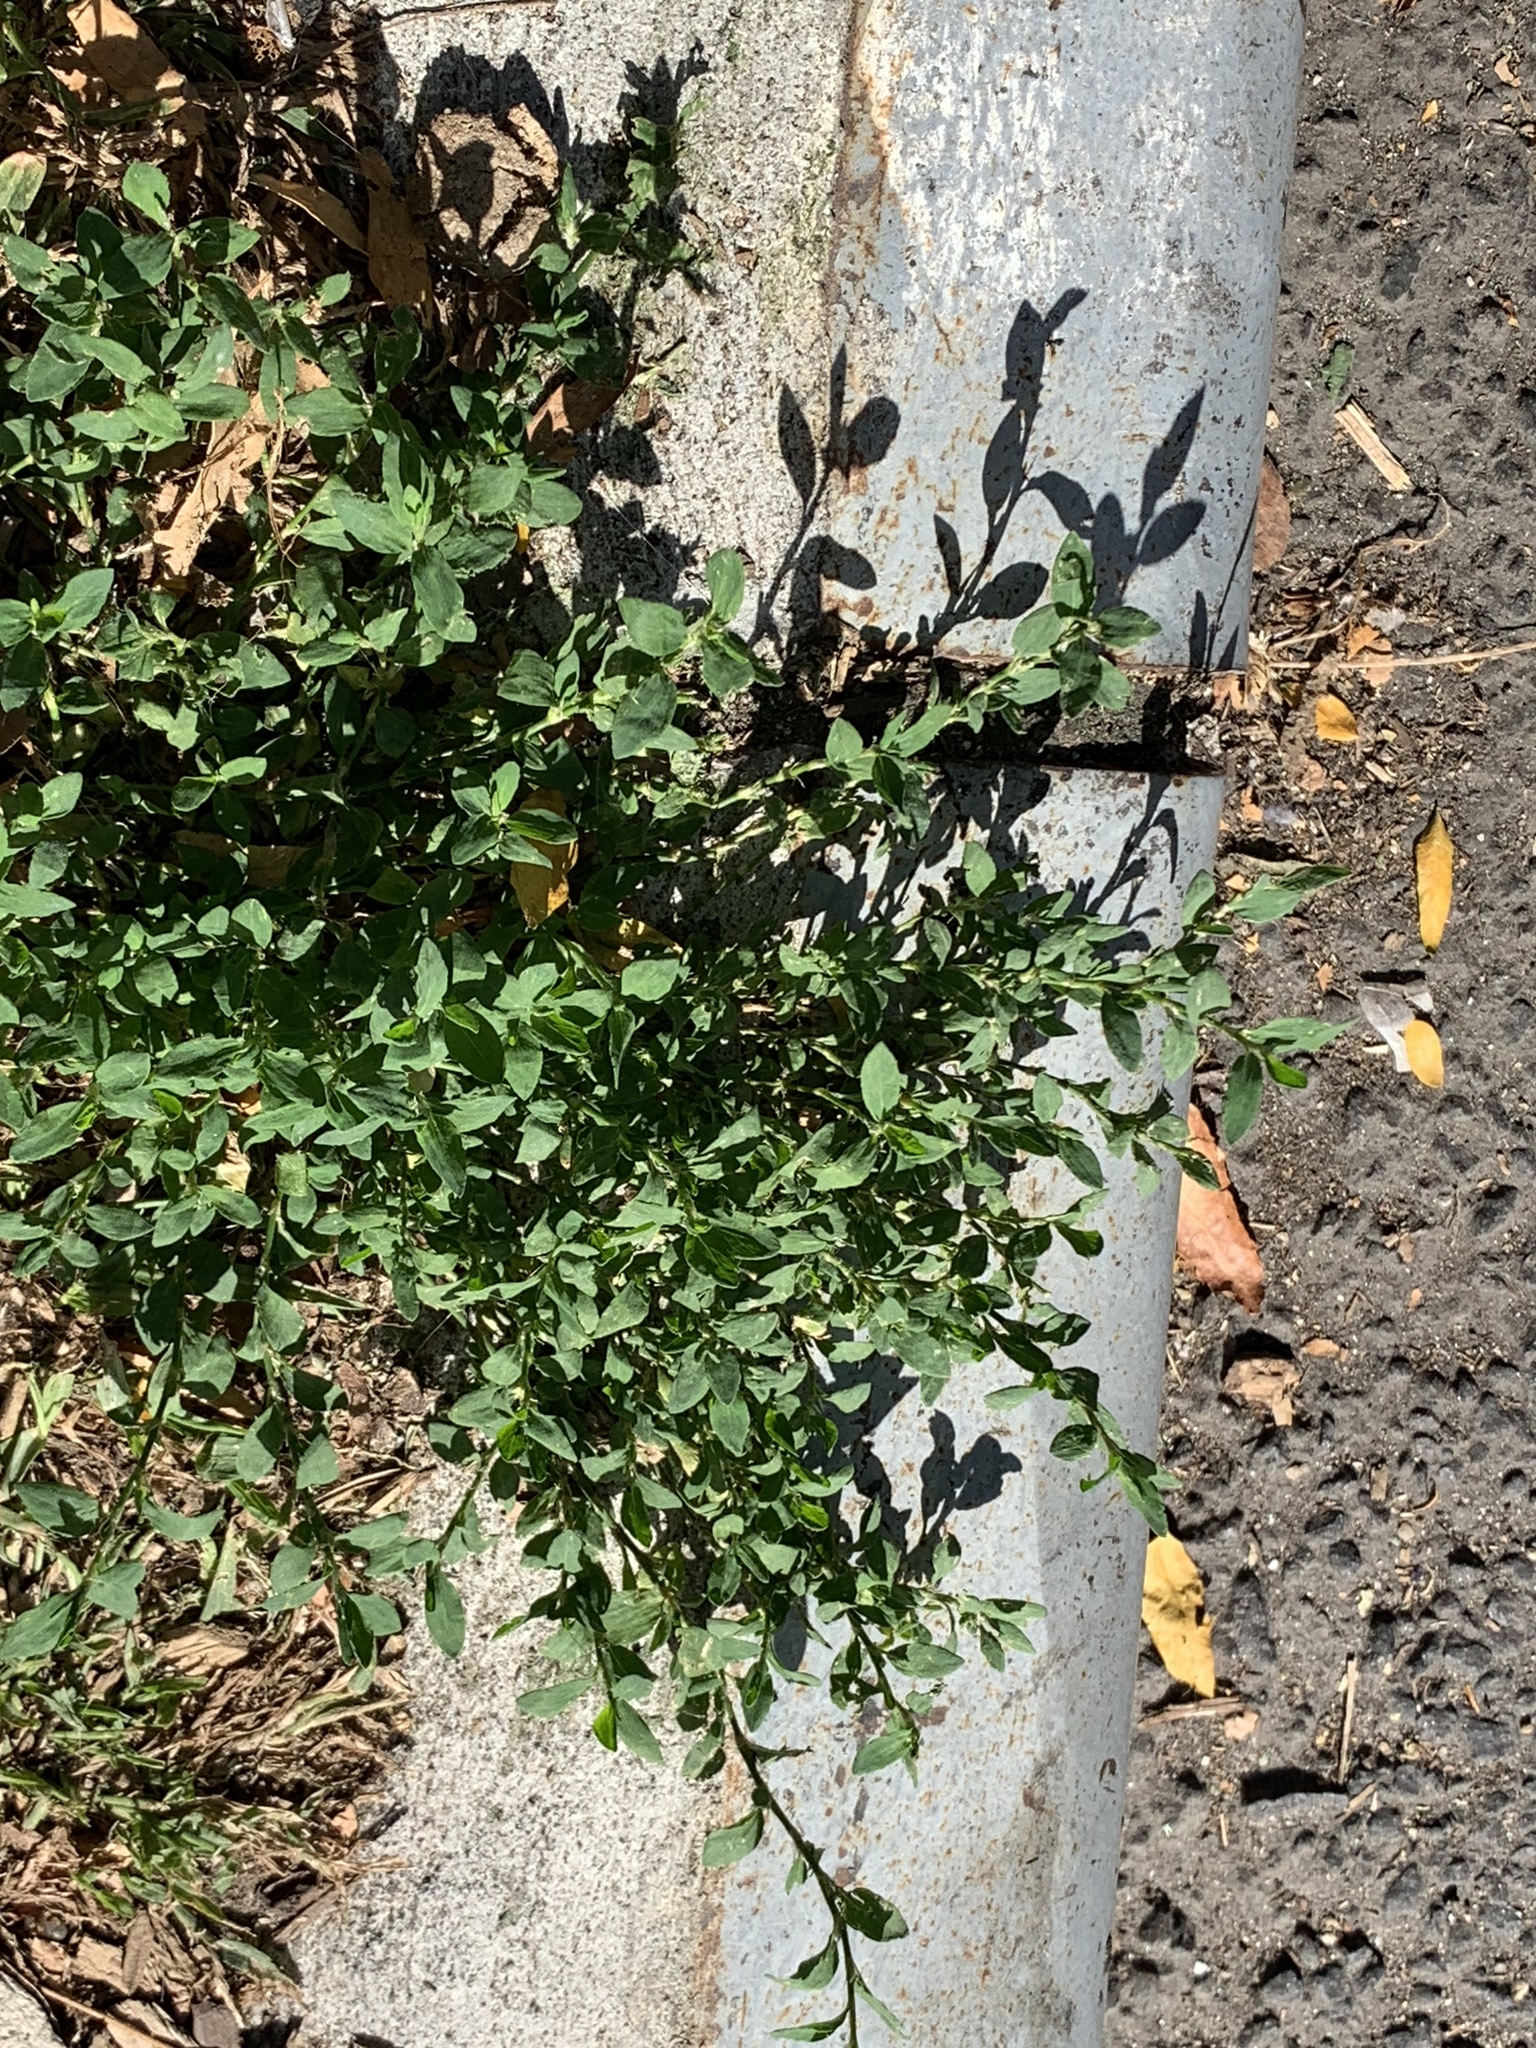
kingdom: Plantae
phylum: Tracheophyta
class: Magnoliopsida
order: Caryophyllales
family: Polygonaceae
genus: Polygonum
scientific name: Polygonum aviculare
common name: Prostrate knotweed
